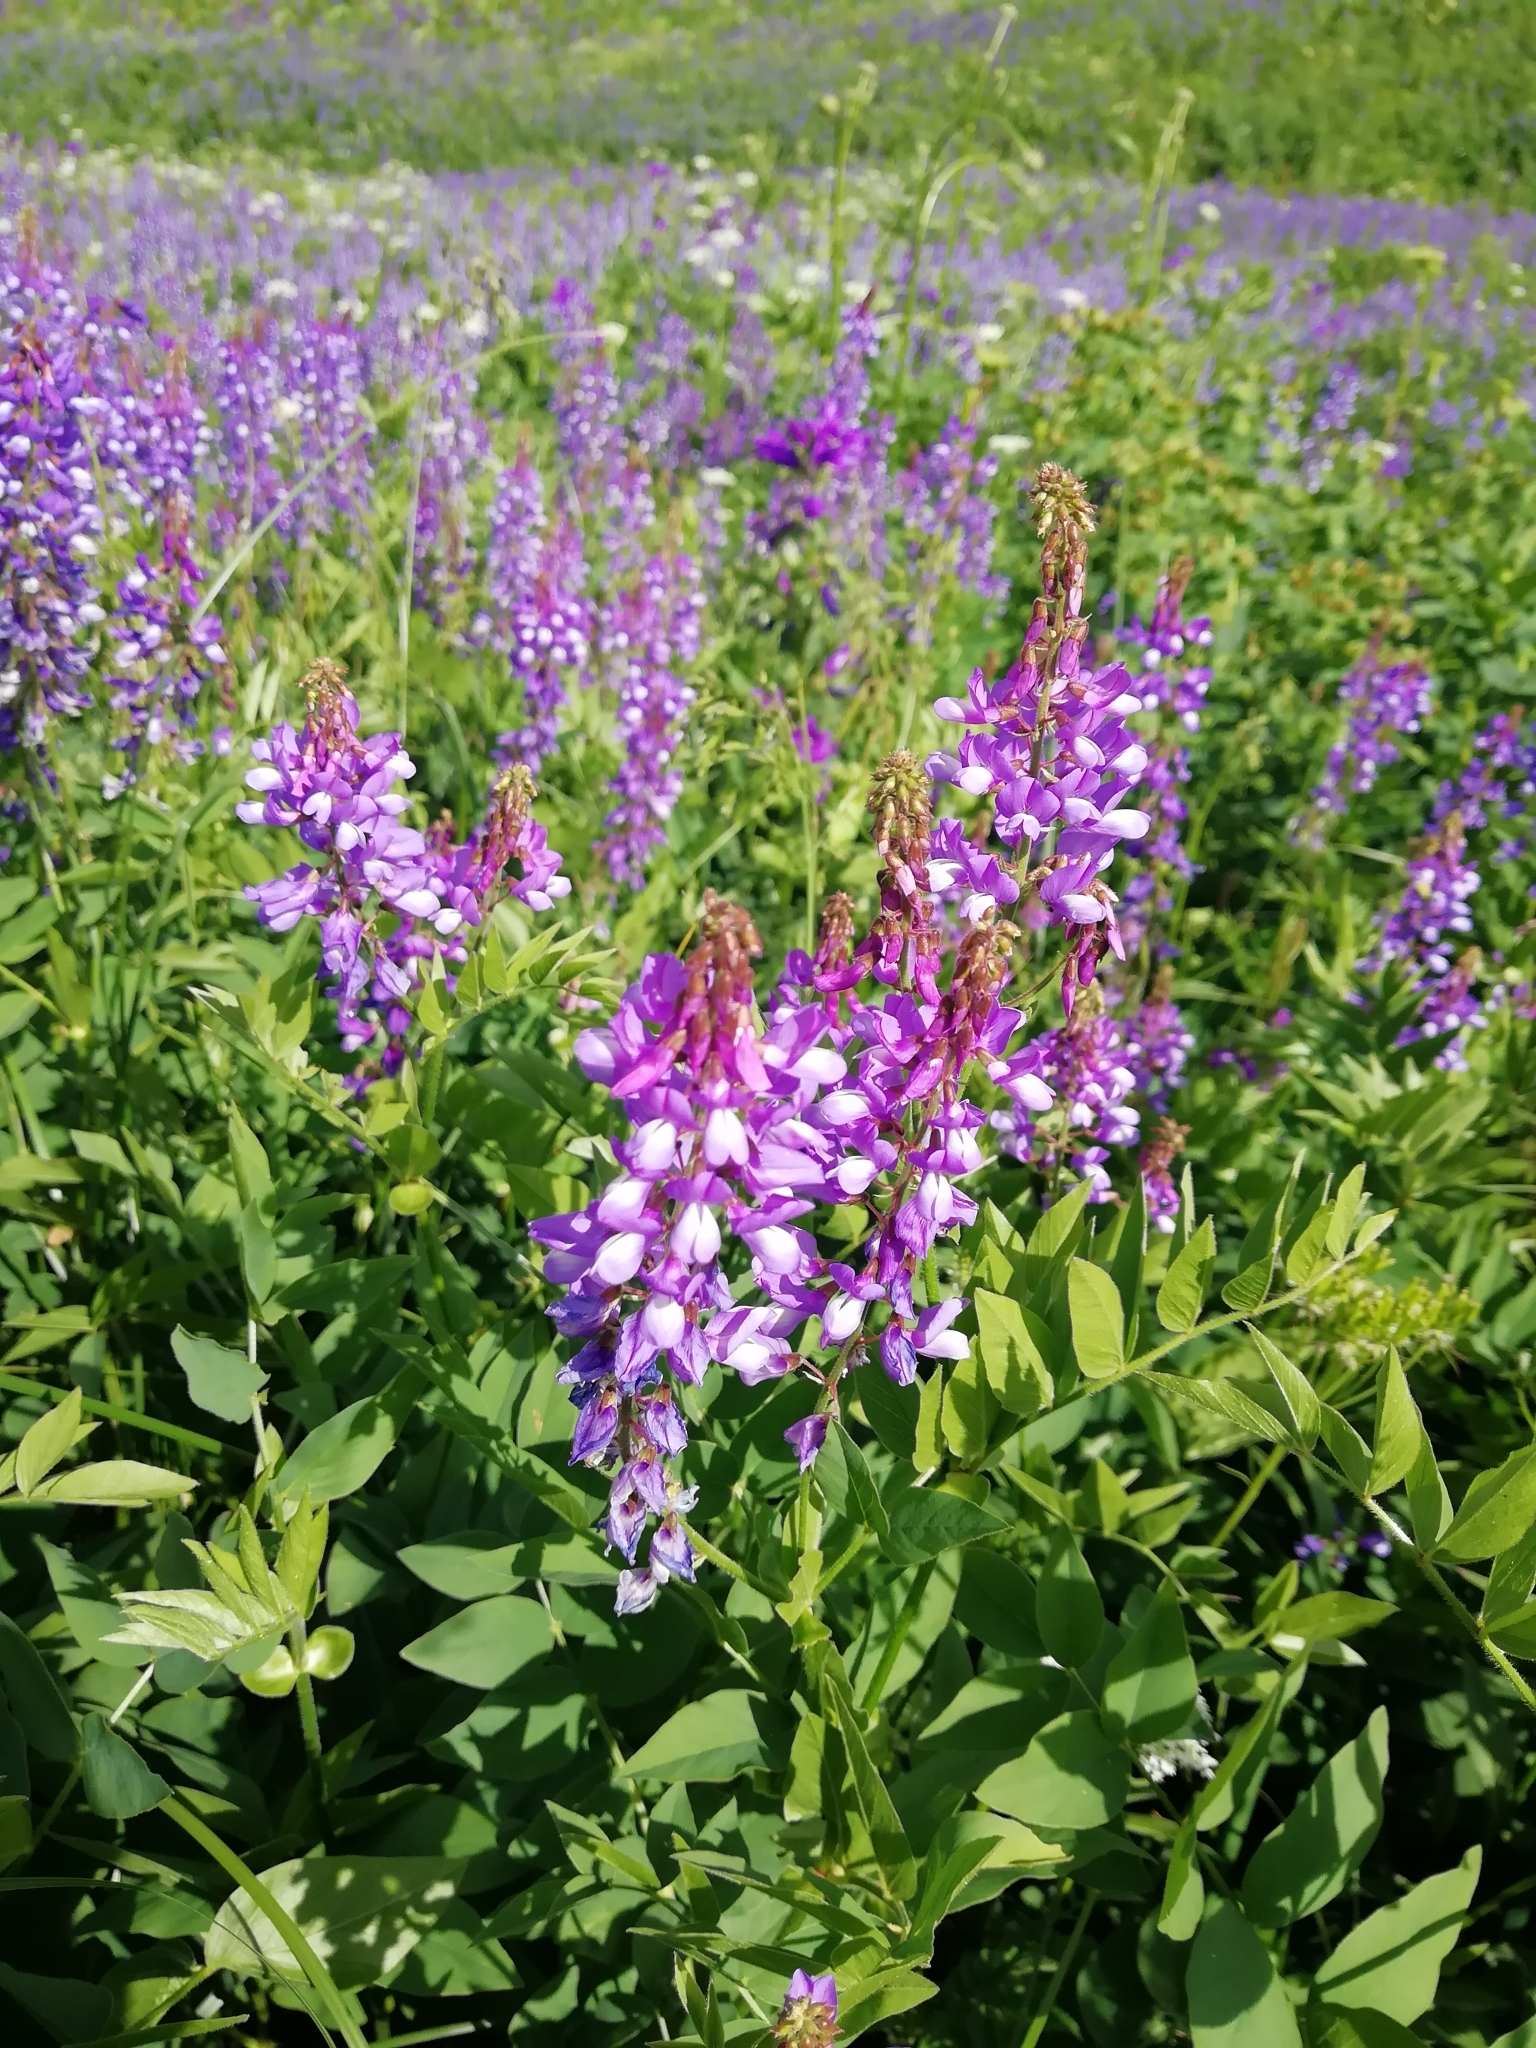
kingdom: Plantae
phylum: Tracheophyta
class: Magnoliopsida
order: Fabales
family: Fabaceae
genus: Galega
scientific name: Galega orientalis
